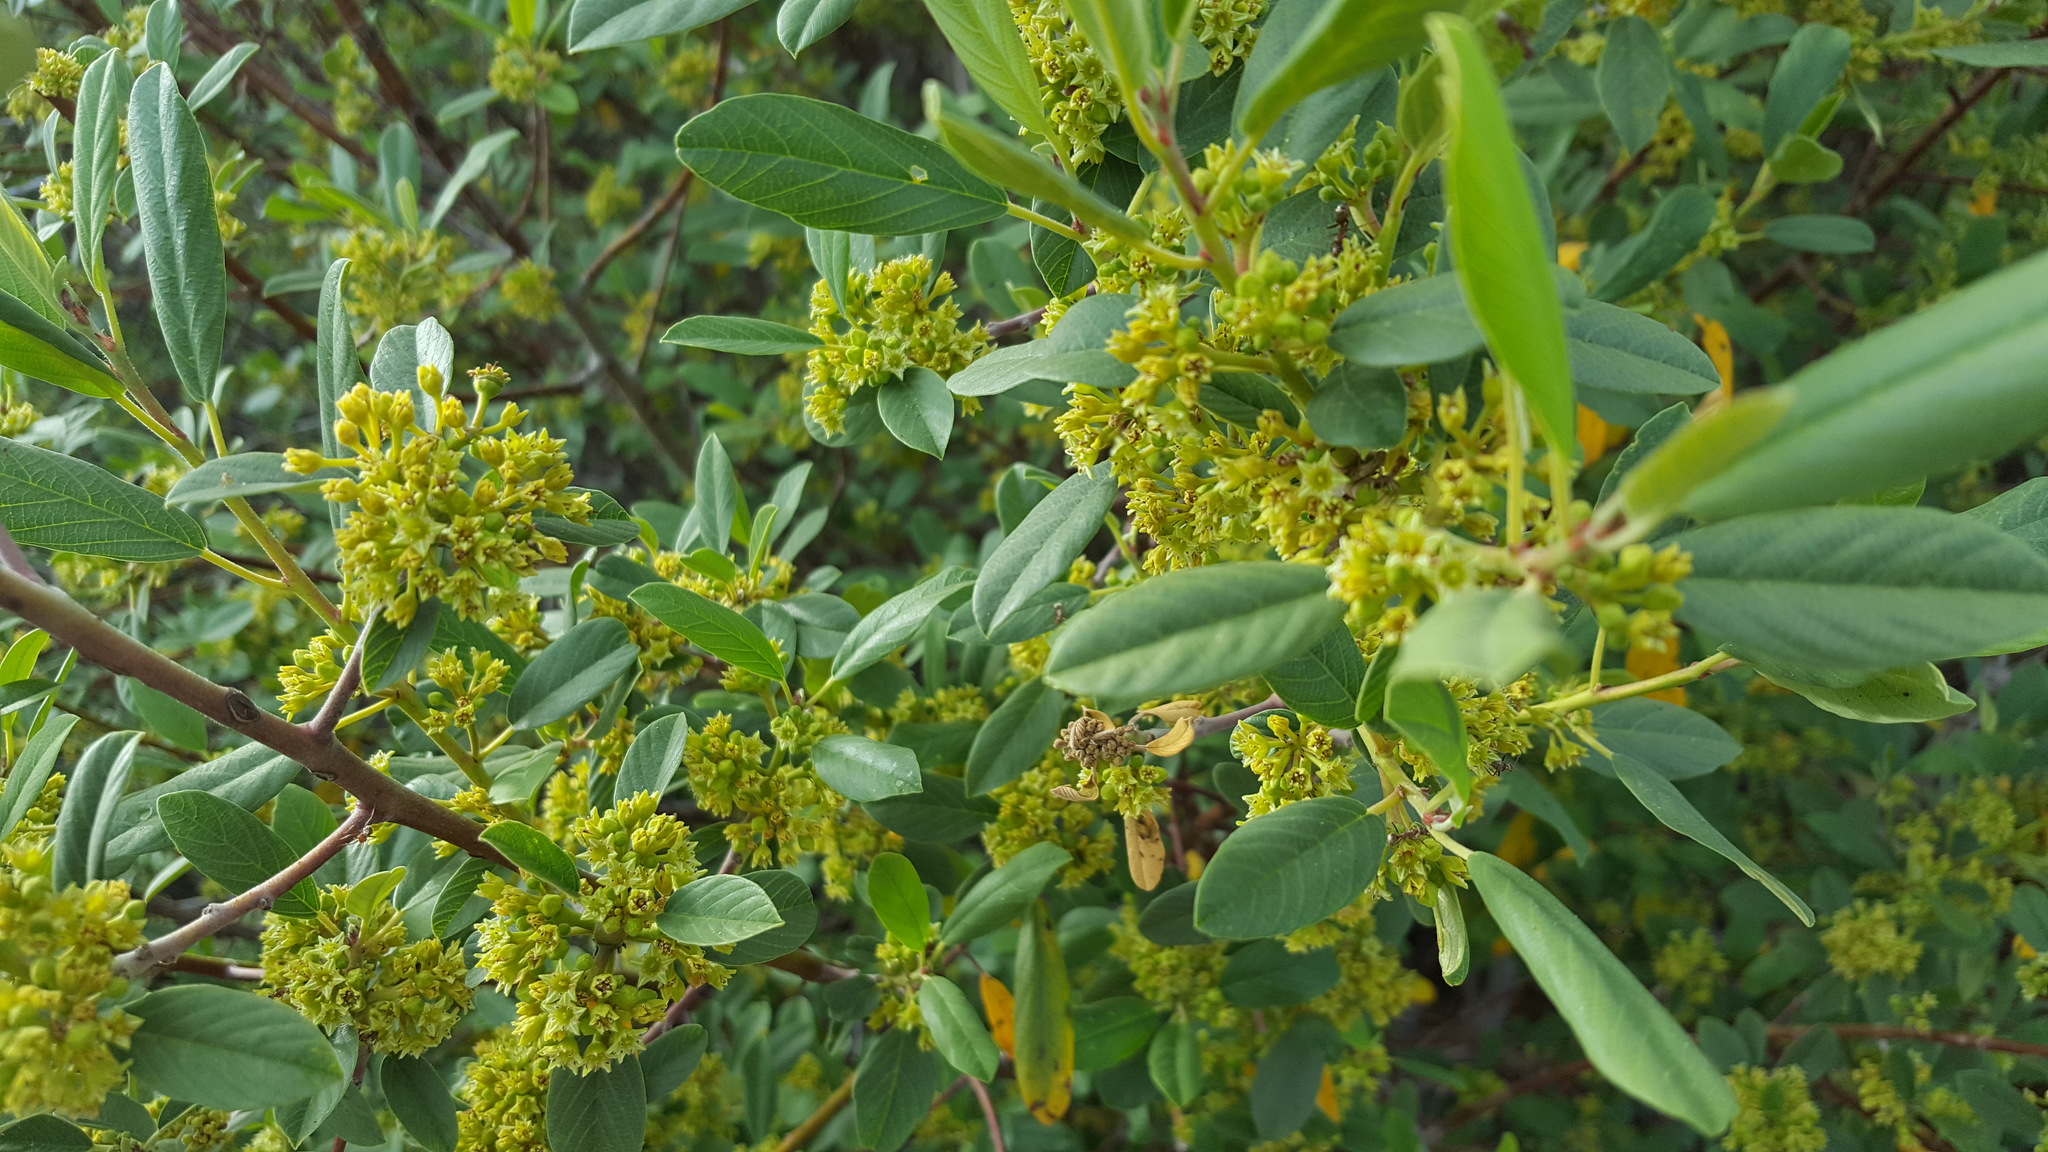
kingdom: Plantae
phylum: Tracheophyta
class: Magnoliopsida
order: Rosales
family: Rhamnaceae
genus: Frangula
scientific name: Frangula californica
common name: California buckthorn
